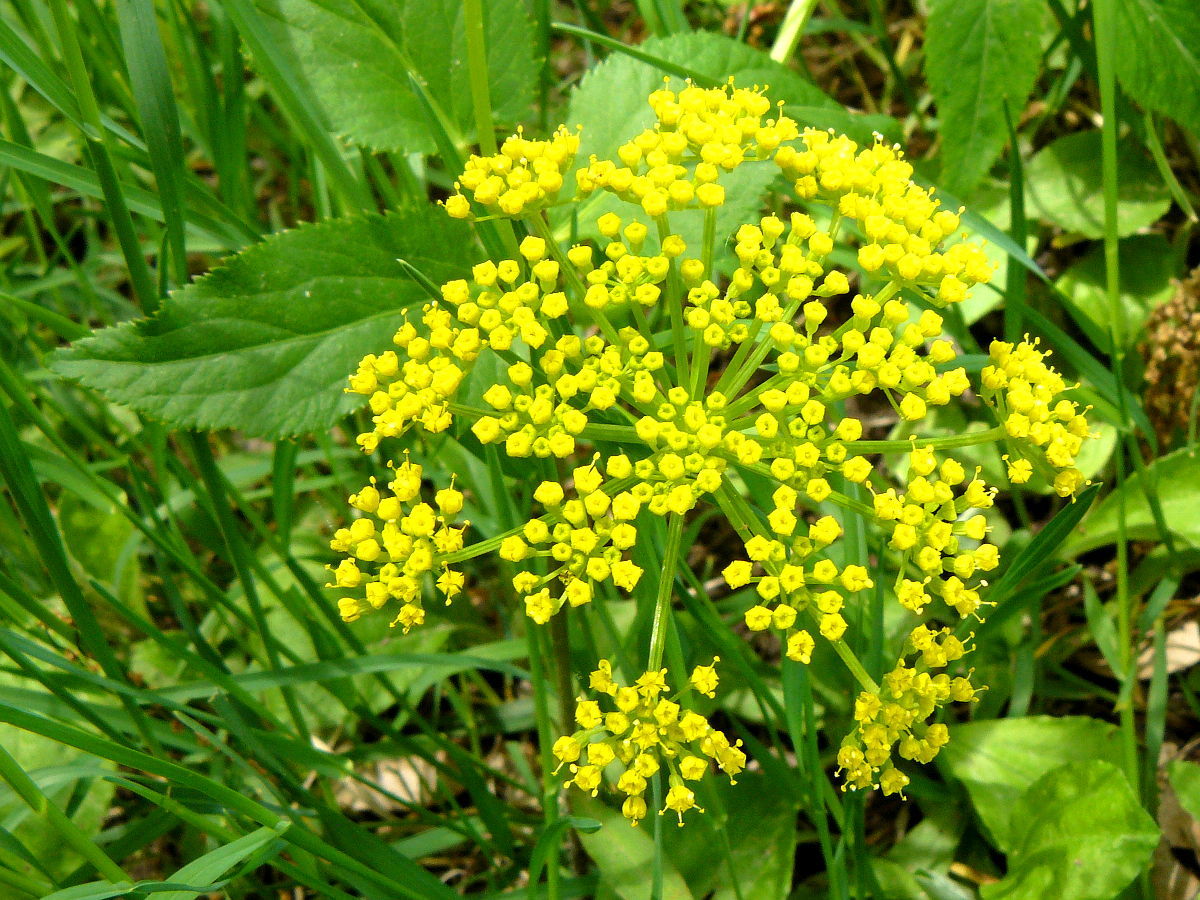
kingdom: Plantae
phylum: Tracheophyta
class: Magnoliopsida
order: Apiales
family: Apiaceae
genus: Zizia
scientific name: Zizia aurea
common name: Golden alexanders
